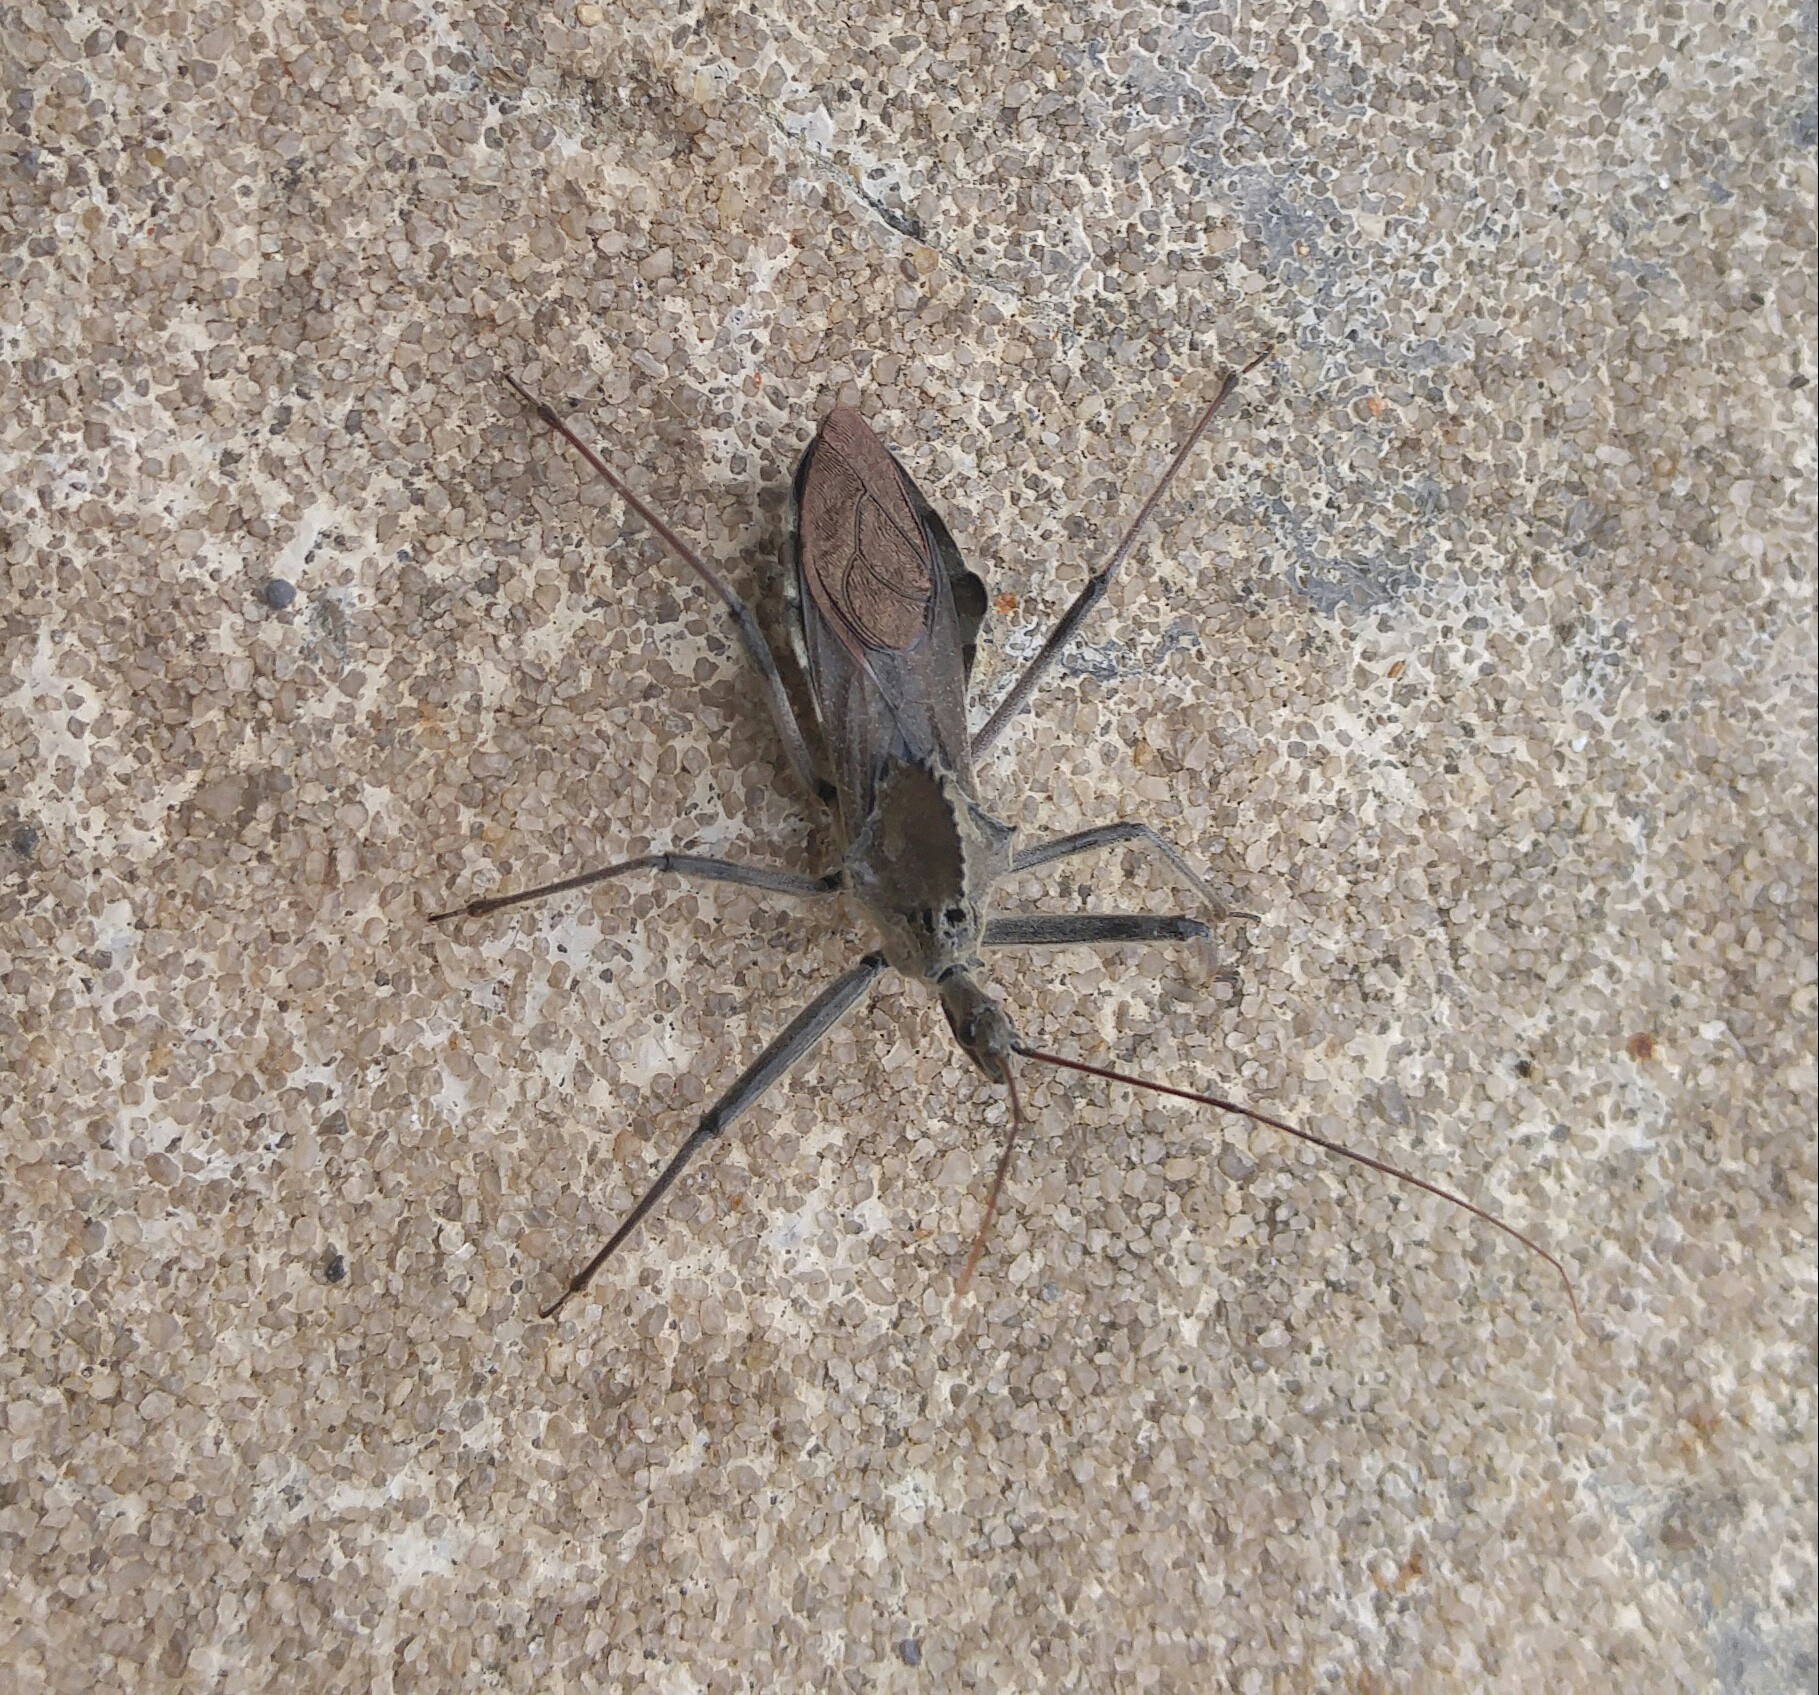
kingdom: Animalia
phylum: Arthropoda
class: Insecta
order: Hemiptera
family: Reduviidae
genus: Arilus
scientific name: Arilus cristatus
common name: North american wheel bug
